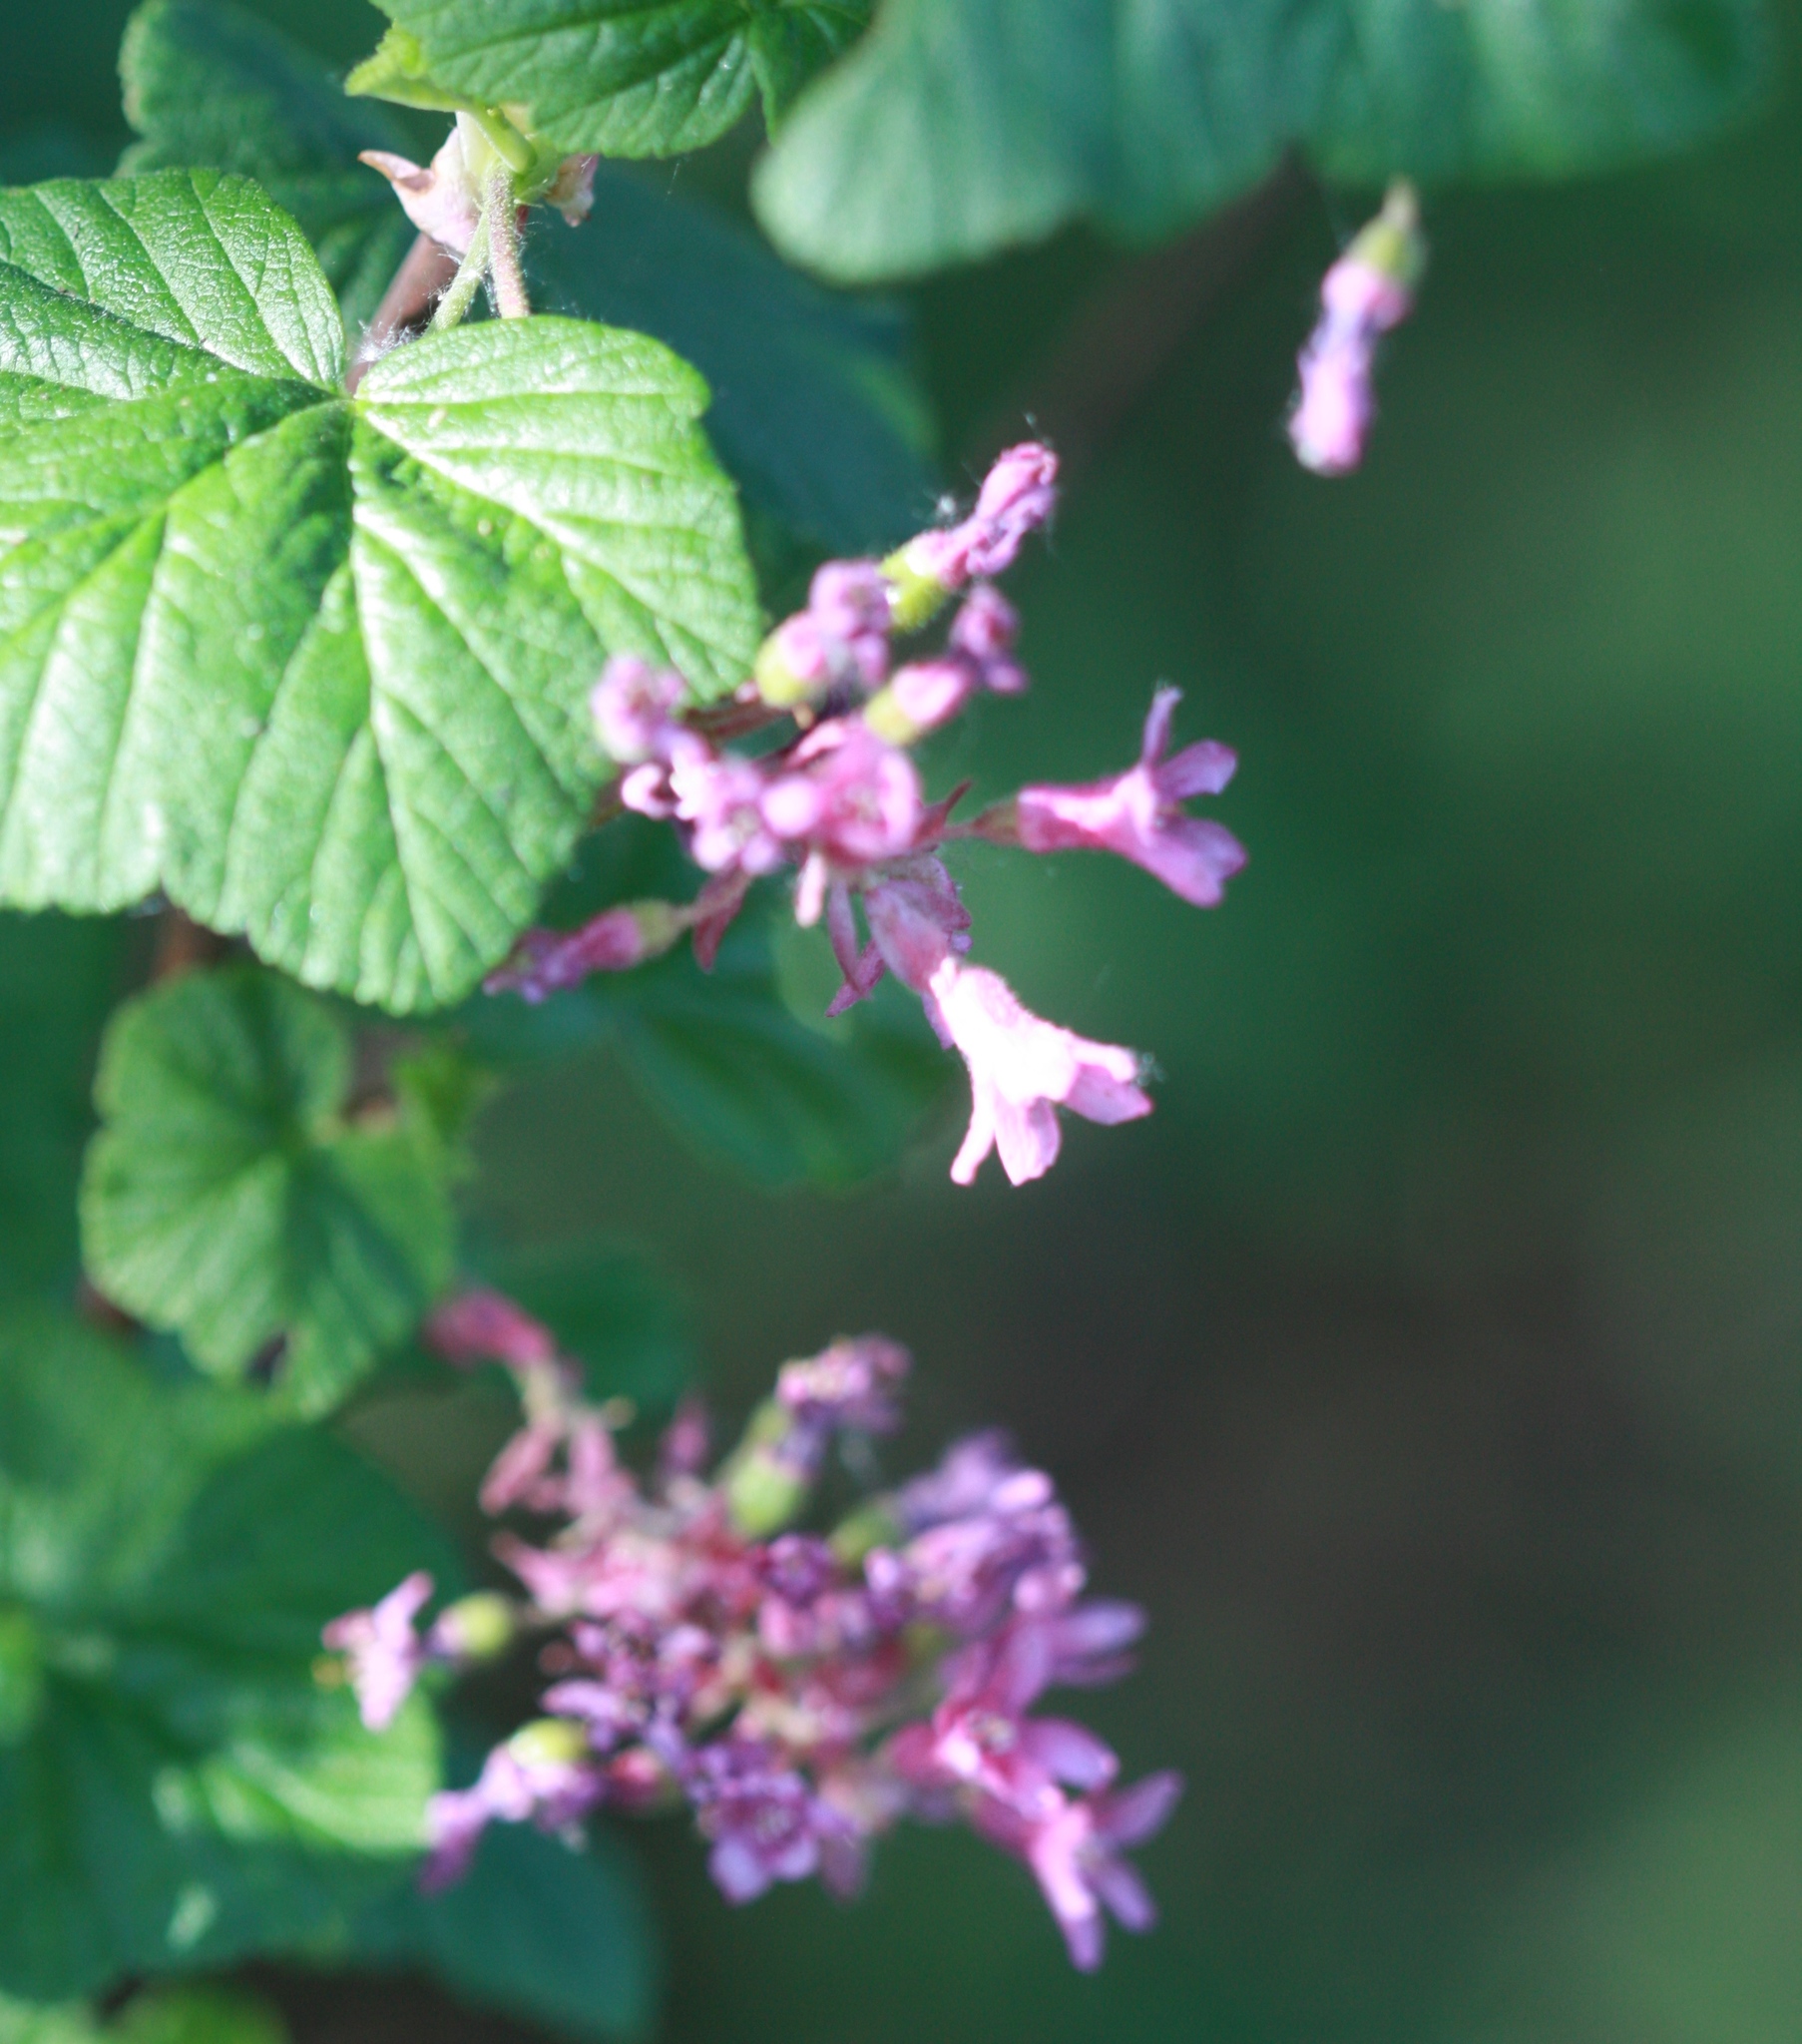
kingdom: Plantae
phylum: Tracheophyta
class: Magnoliopsida
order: Saxifragales
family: Grossulariaceae
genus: Ribes
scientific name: Ribes sanguineum
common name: Flowering currant
